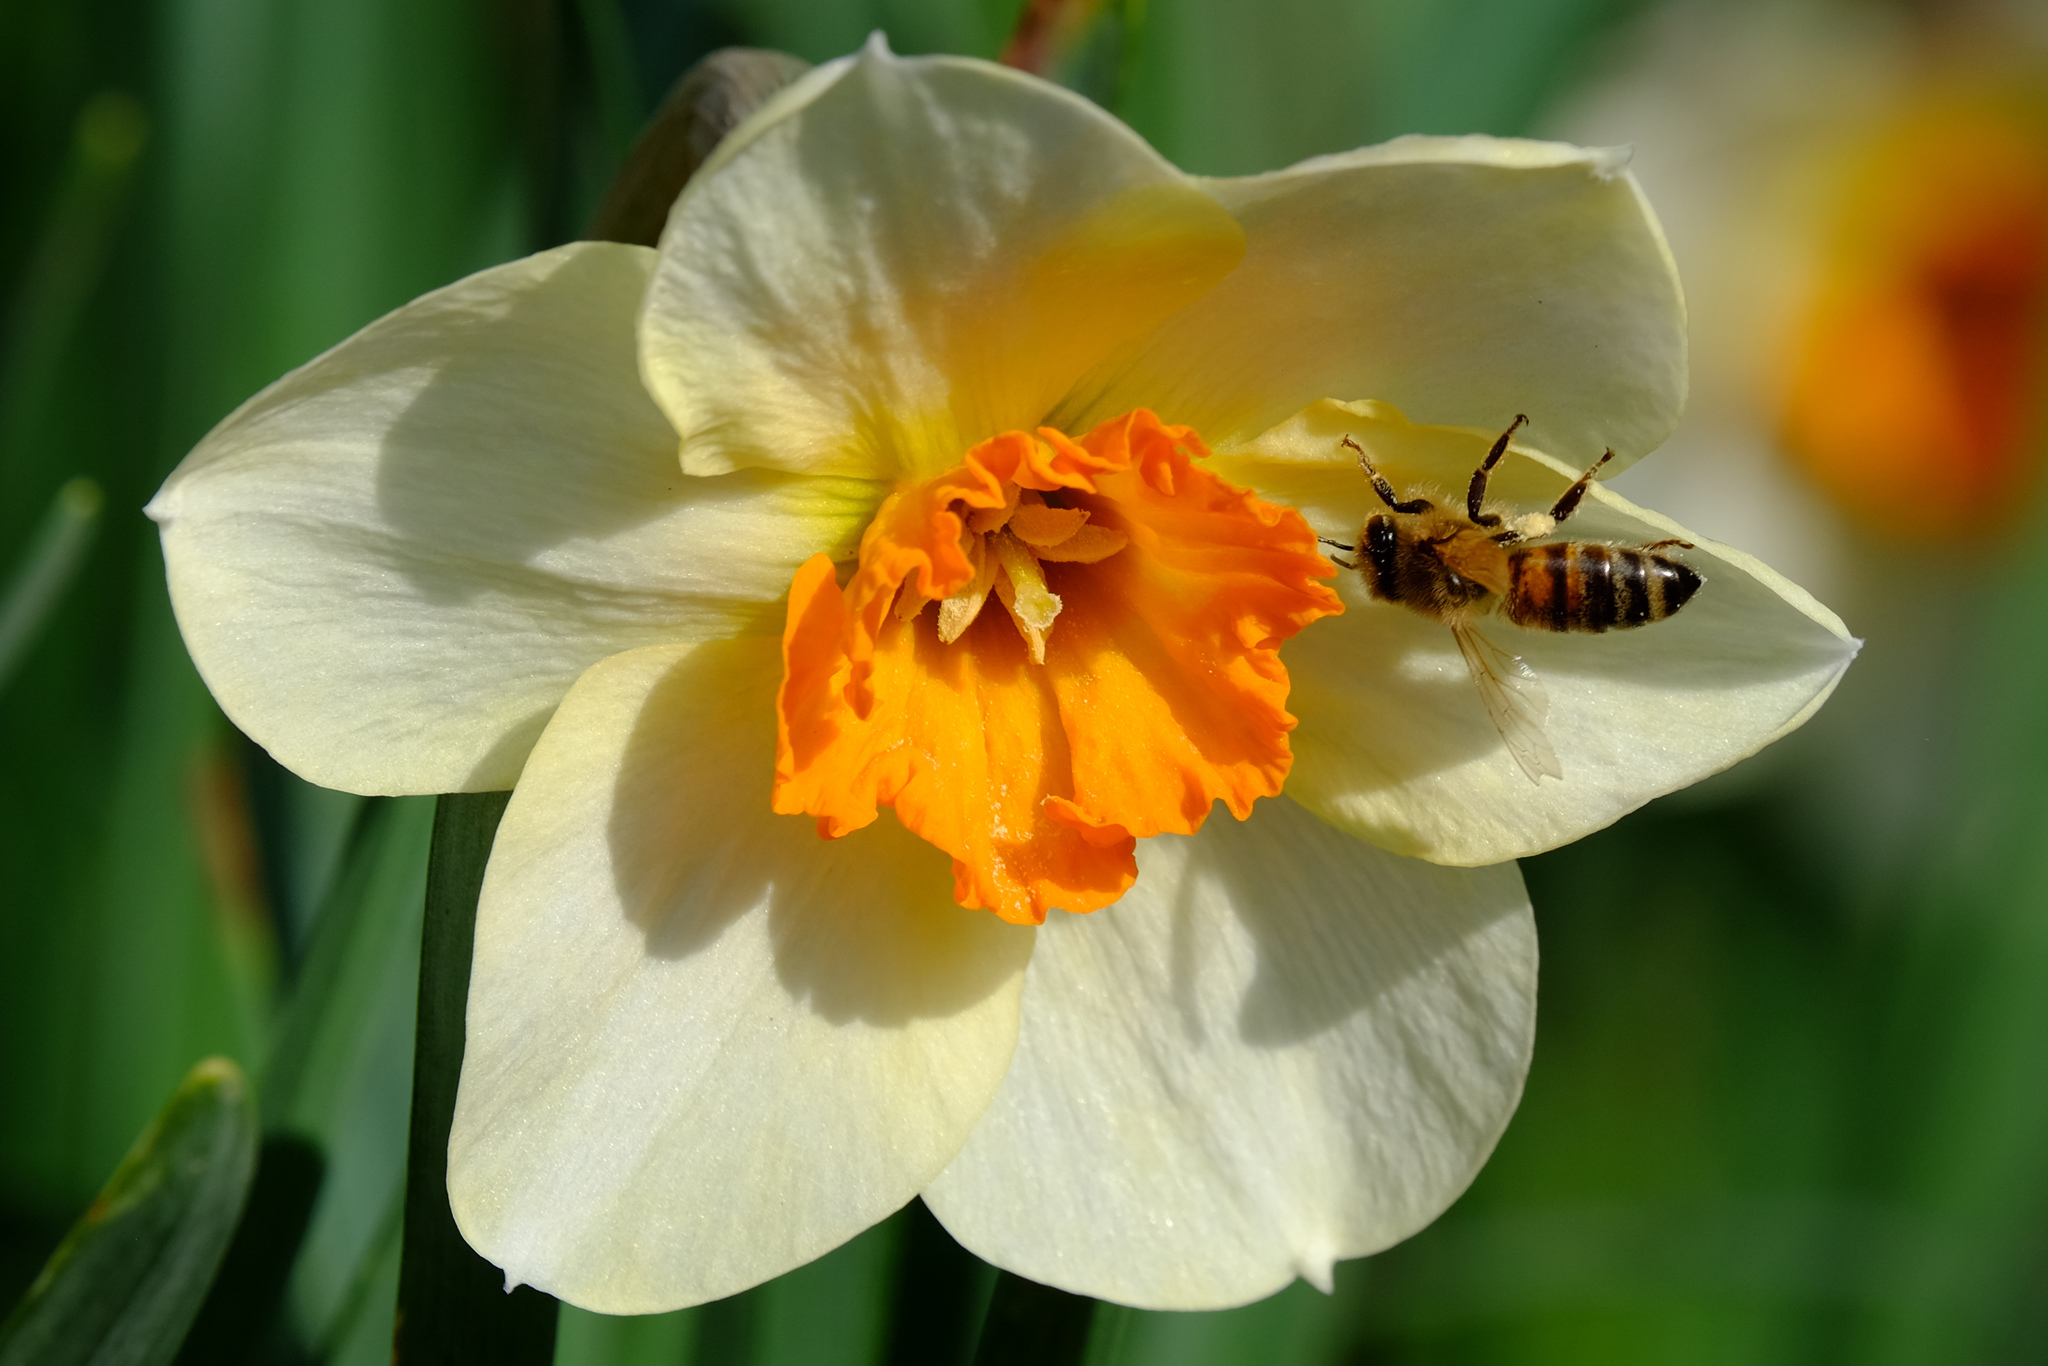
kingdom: Animalia
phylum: Arthropoda
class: Insecta
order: Hymenoptera
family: Apidae
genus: Apis
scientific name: Apis mellifera
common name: Honey bee
